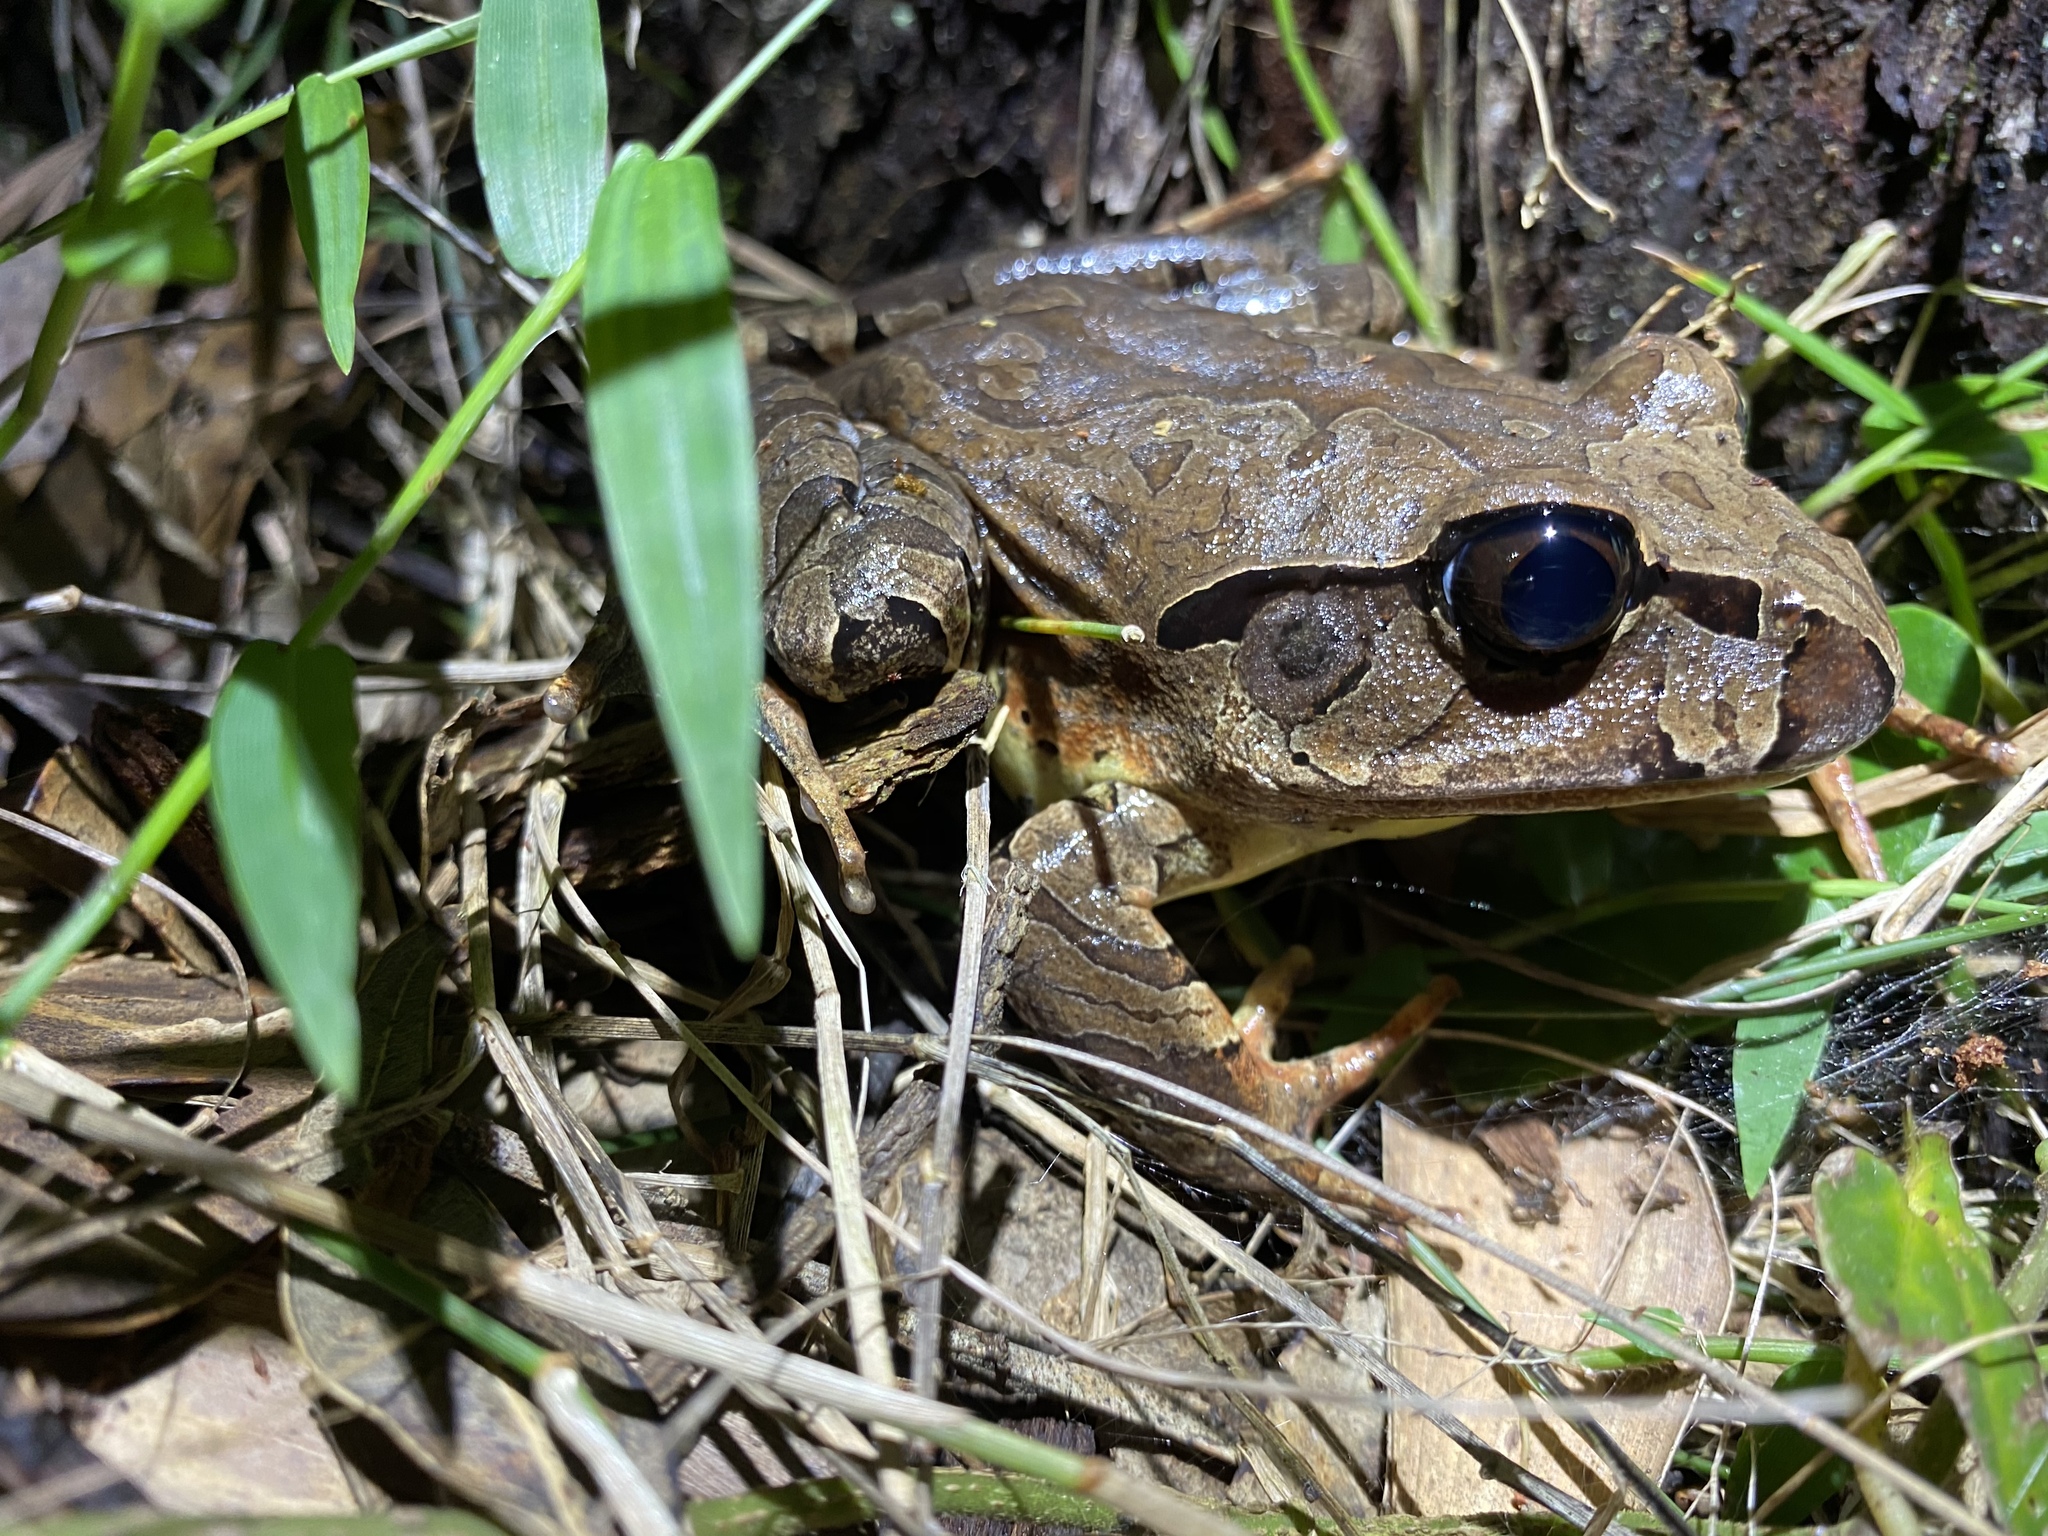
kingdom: Animalia
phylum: Chordata
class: Amphibia
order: Anura
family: Myobatrachidae
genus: Mixophyes
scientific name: Mixophyes coggeri
